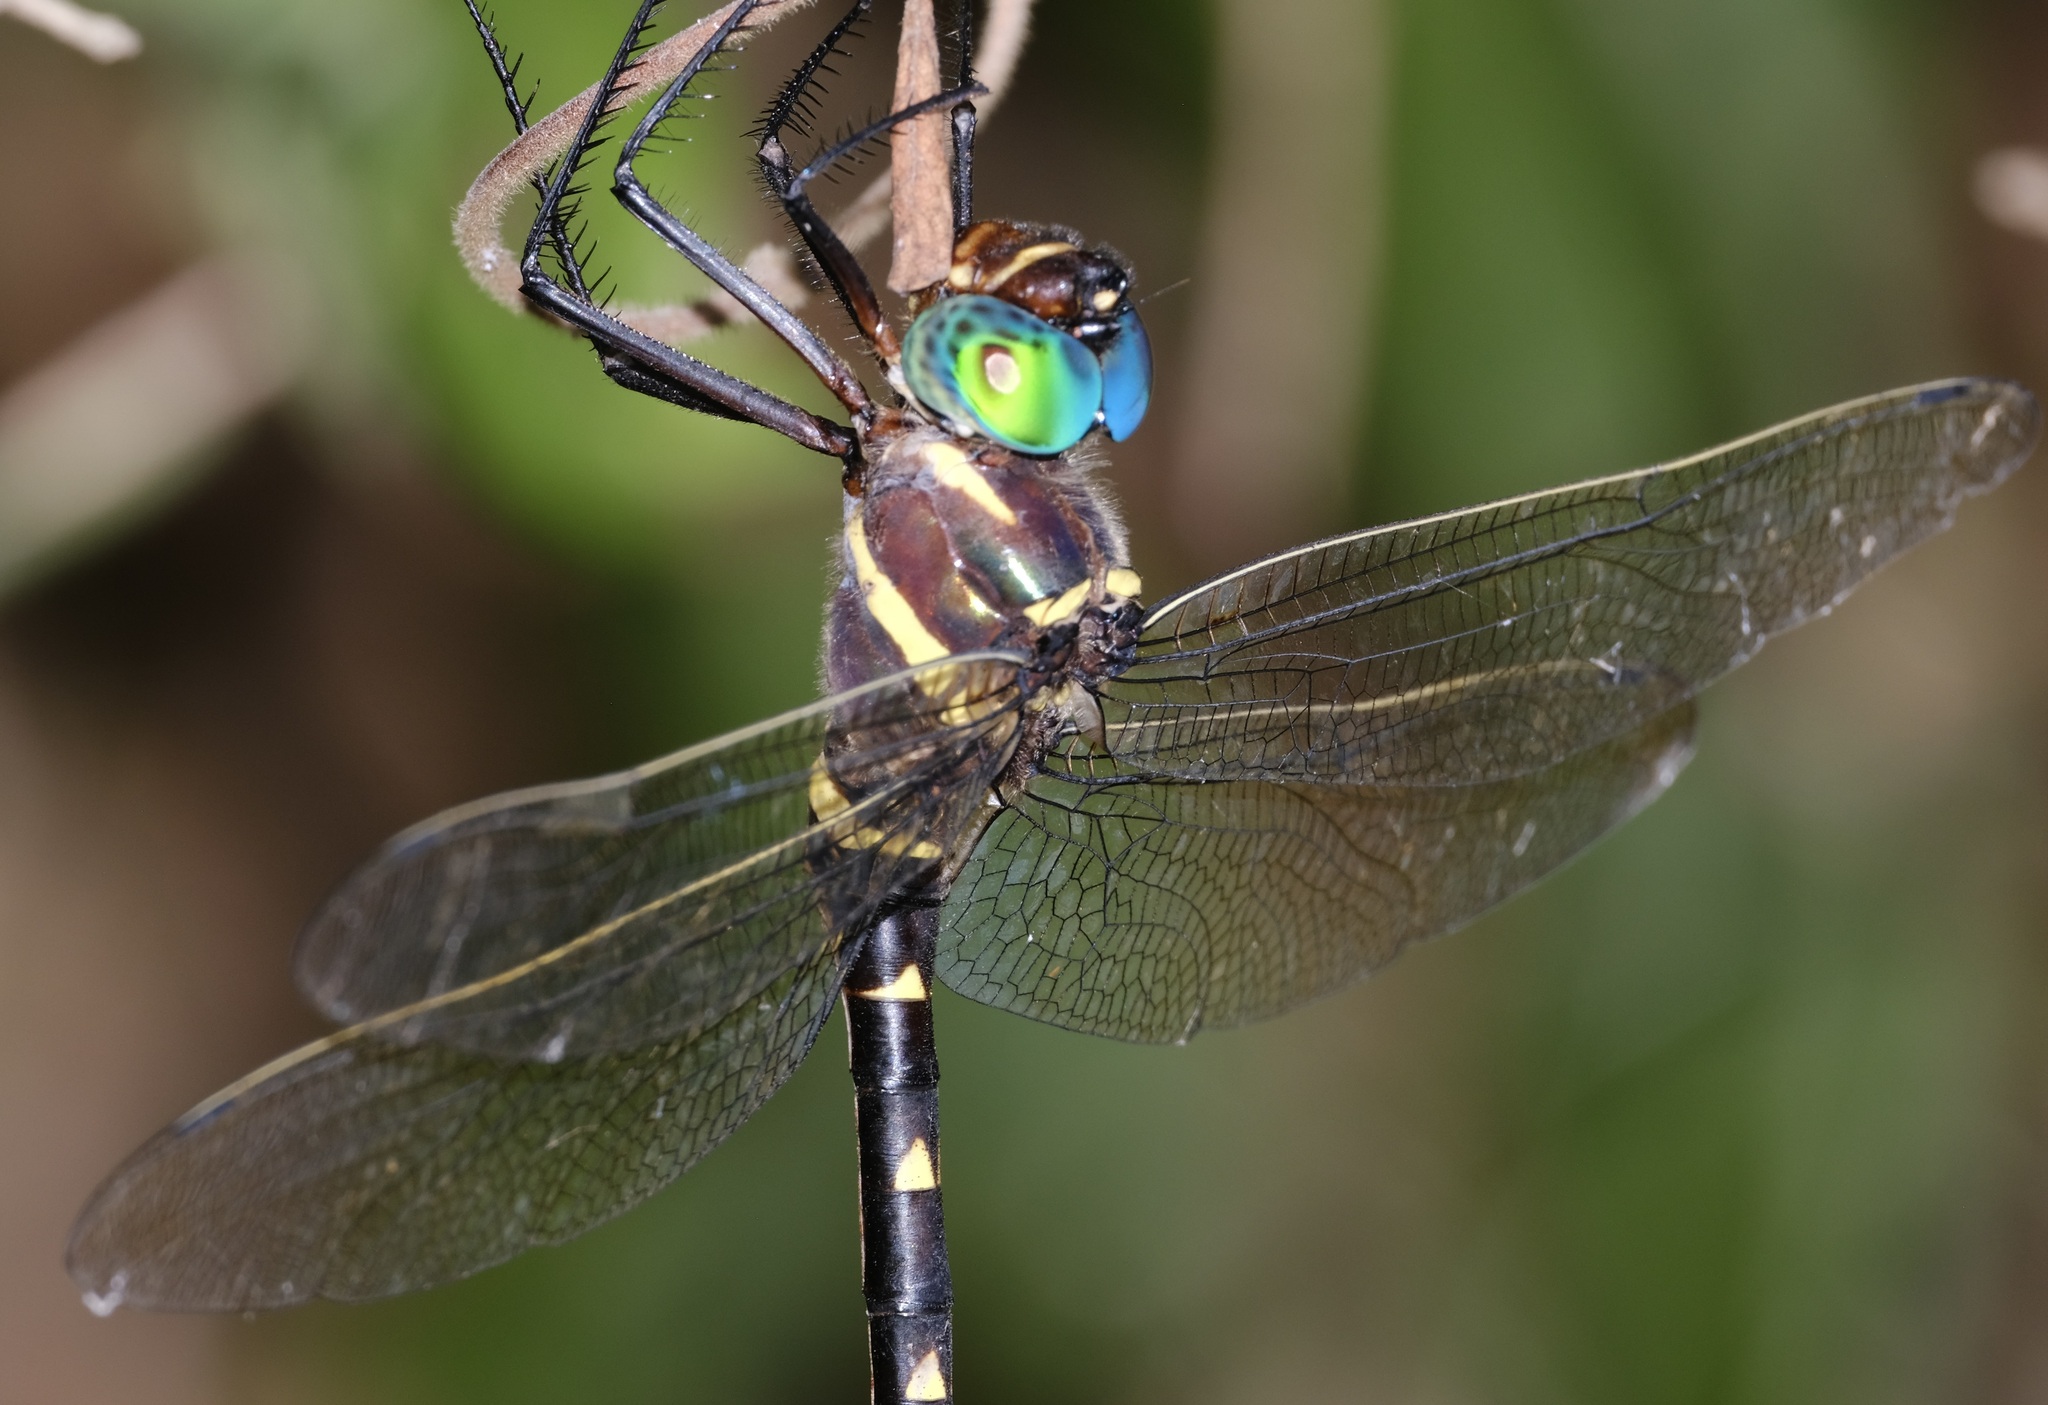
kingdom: Animalia
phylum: Arthropoda
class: Insecta
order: Odonata
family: Macromiidae
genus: Macromia
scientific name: Macromia taeniolata
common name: Royal river cruiser
